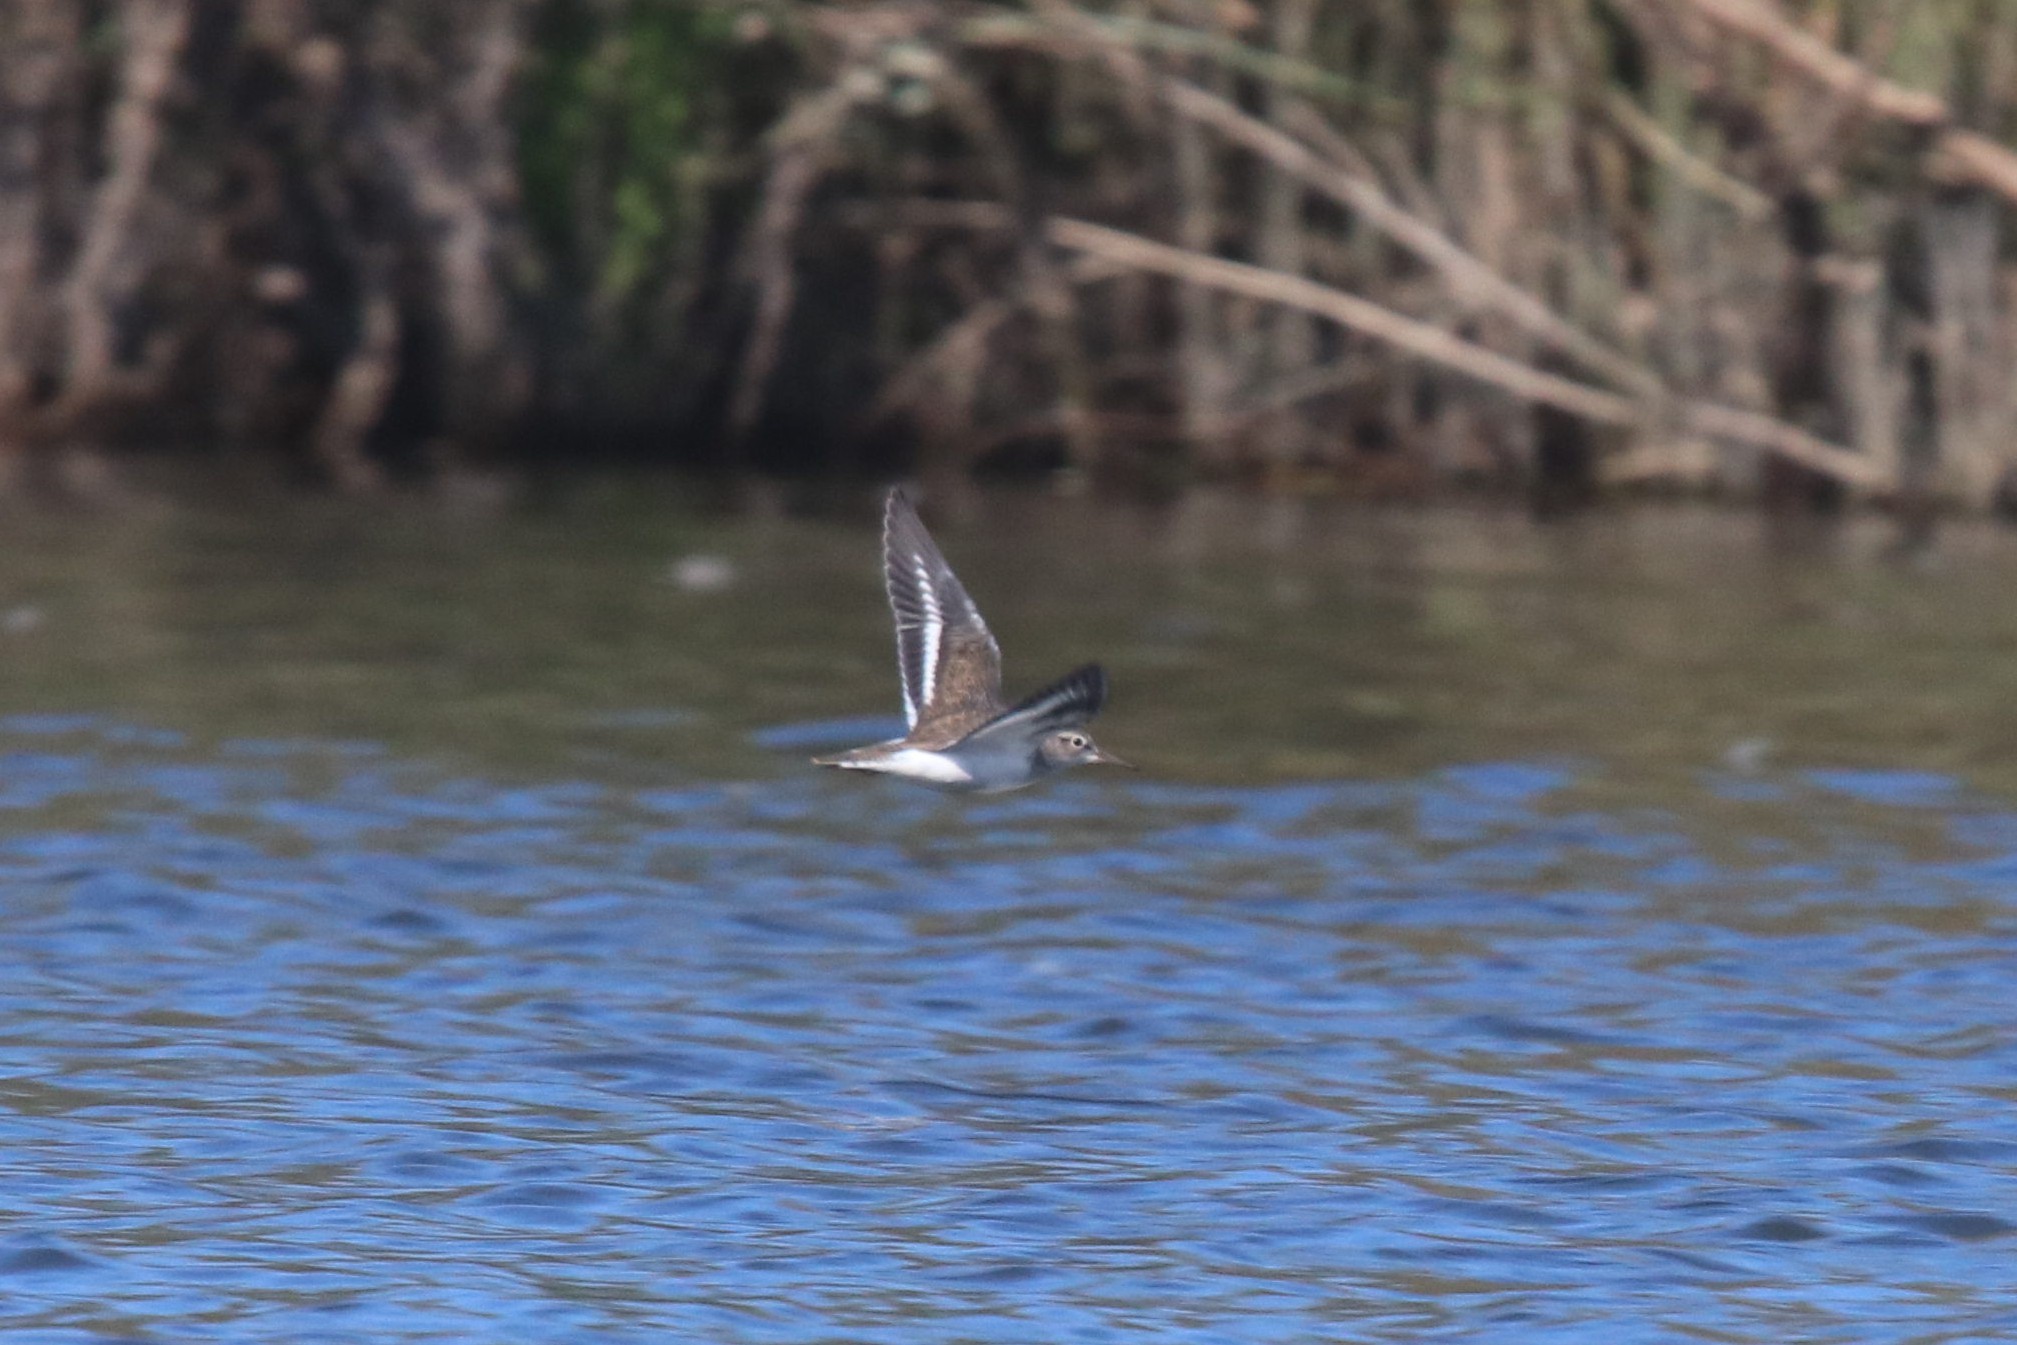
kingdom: Animalia
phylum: Chordata
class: Aves
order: Charadriiformes
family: Scolopacidae
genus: Actitis
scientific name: Actitis hypoleucos
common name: Common sandpiper
